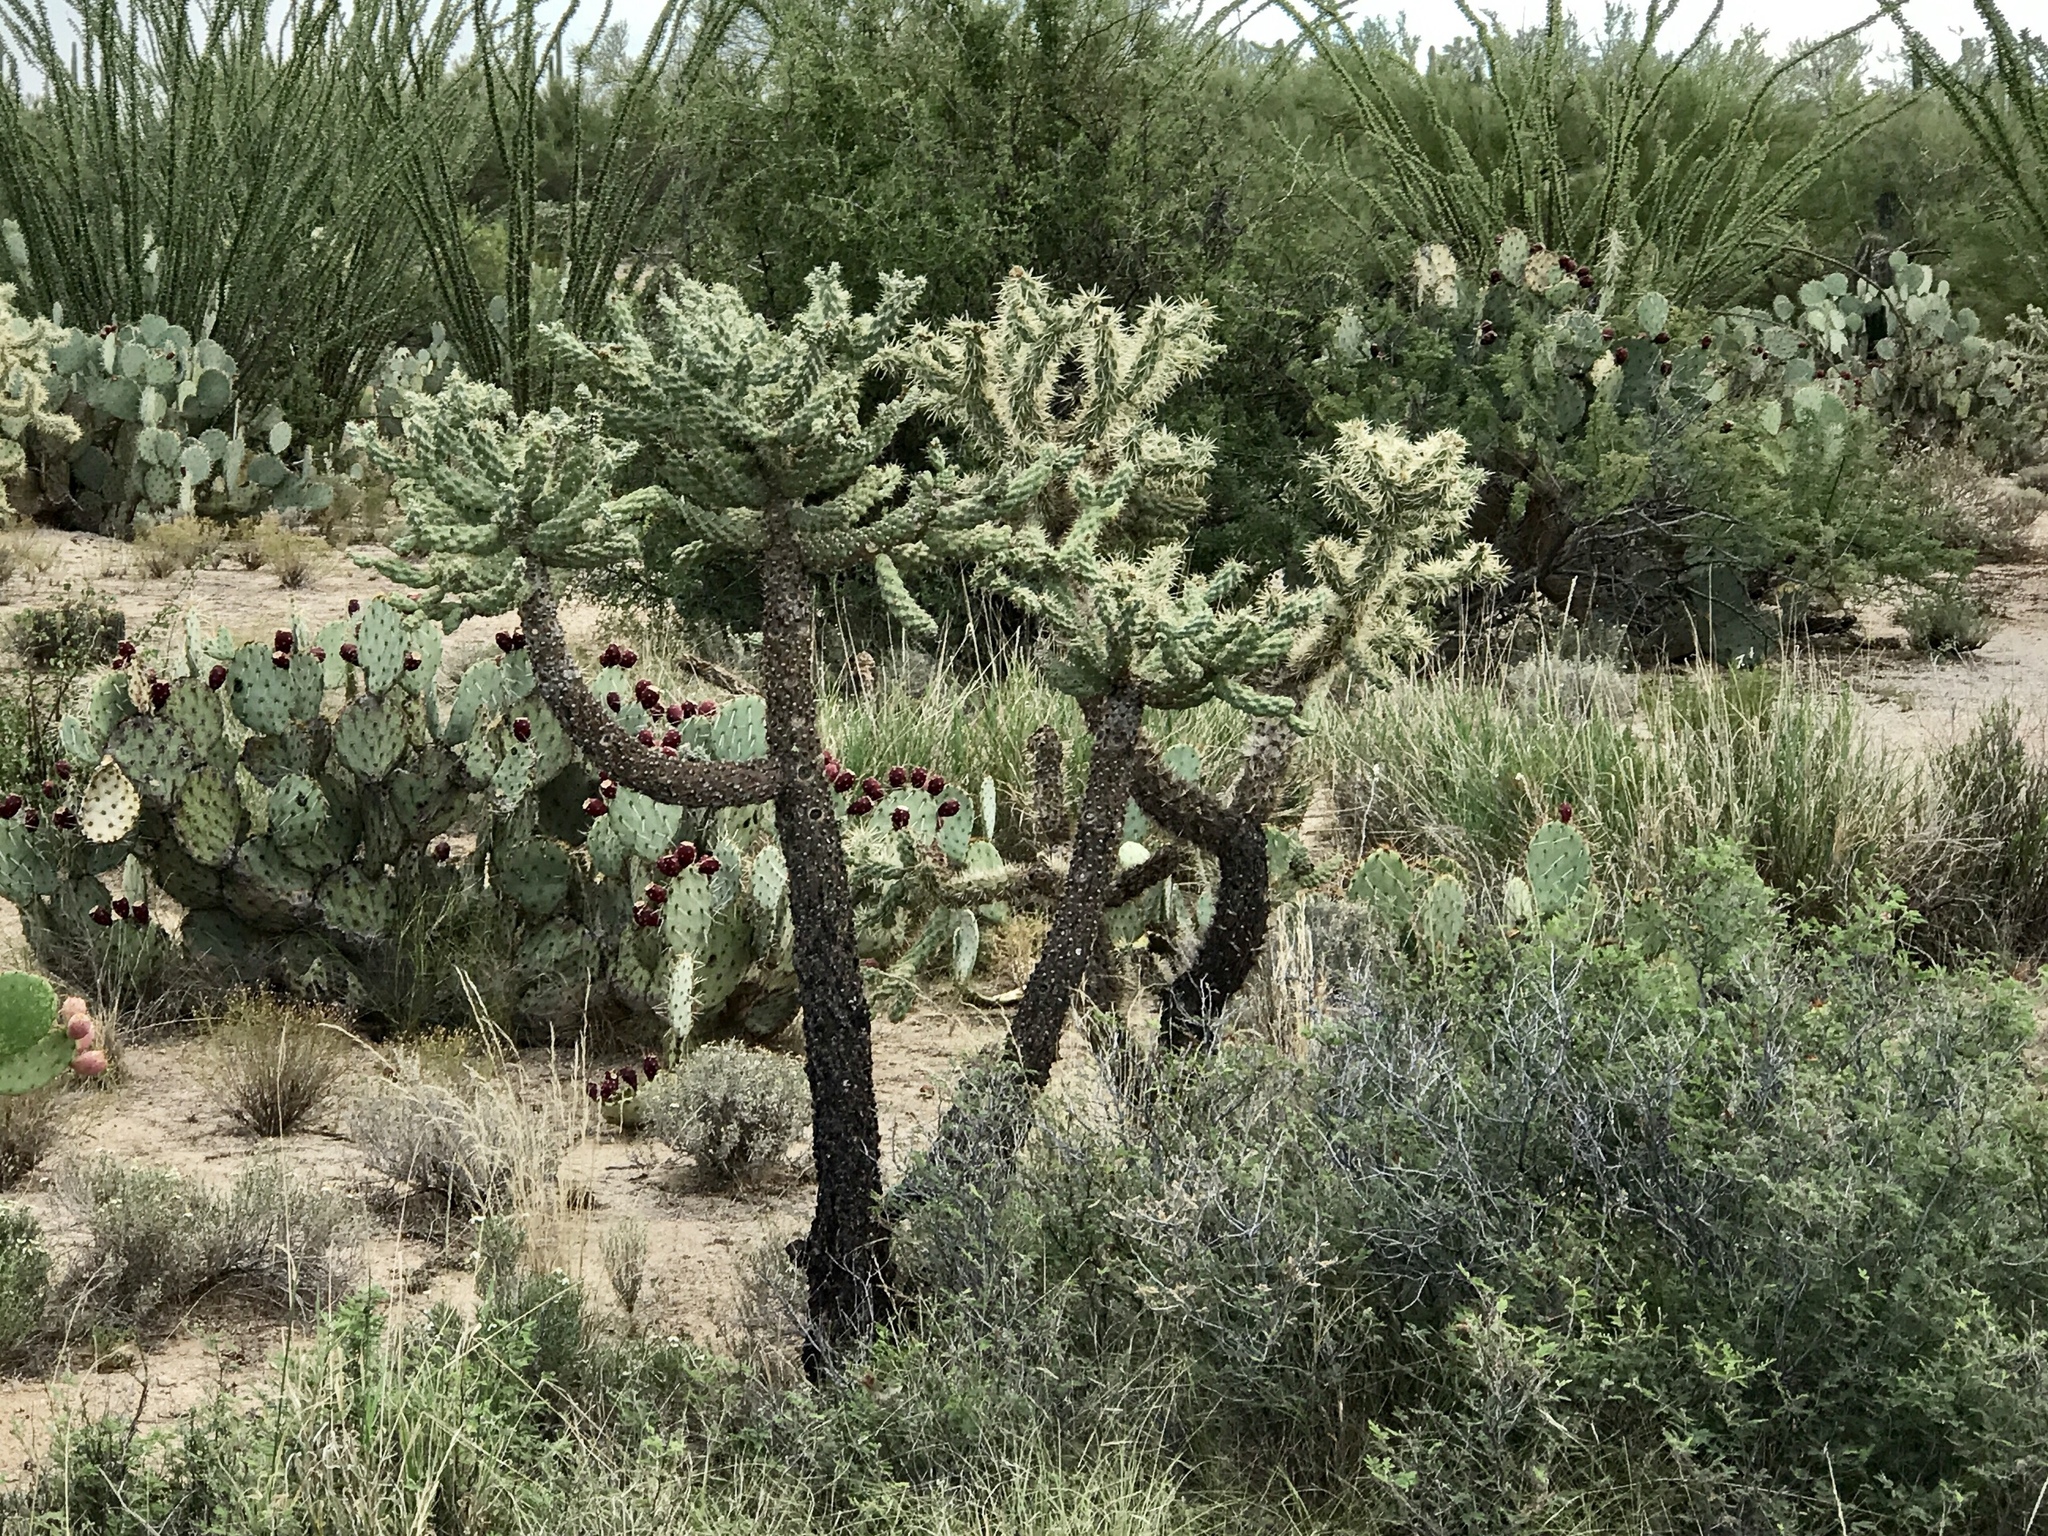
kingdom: Plantae
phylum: Tracheophyta
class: Magnoliopsida
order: Caryophyllales
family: Cactaceae
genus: Cylindropuntia
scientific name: Cylindropuntia fulgida
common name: Jumping cholla
